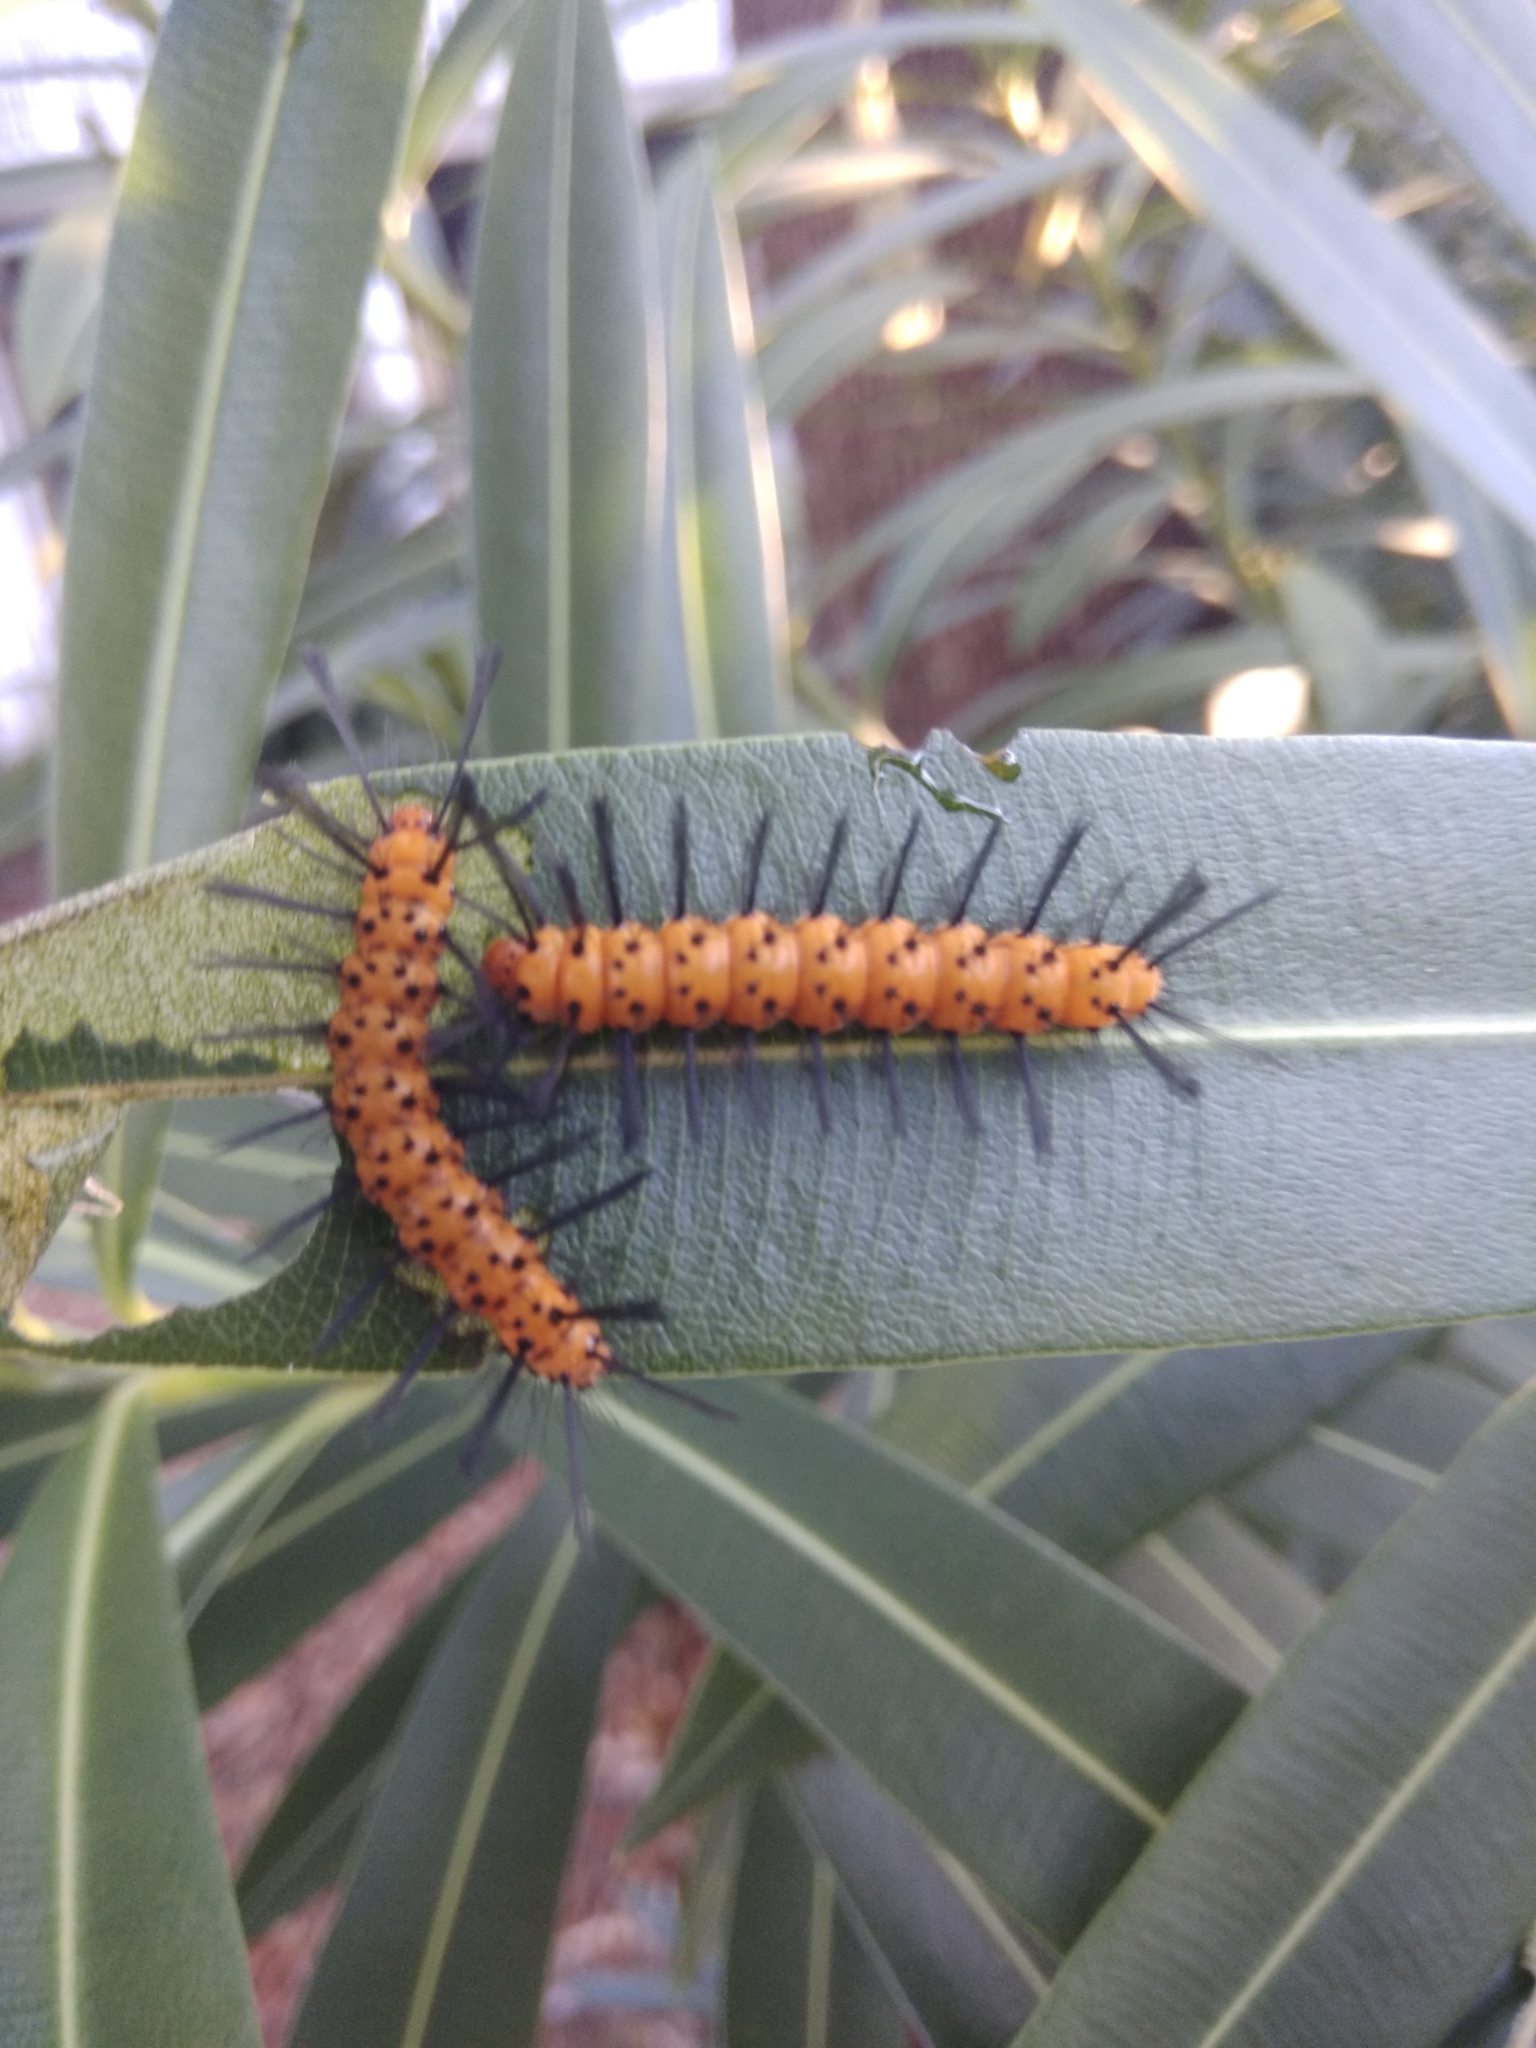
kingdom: Animalia
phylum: Arthropoda
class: Insecta
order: Lepidoptera
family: Erebidae
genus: Syntomeida
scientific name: Syntomeida epilais
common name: Polka-dot wasp moth
